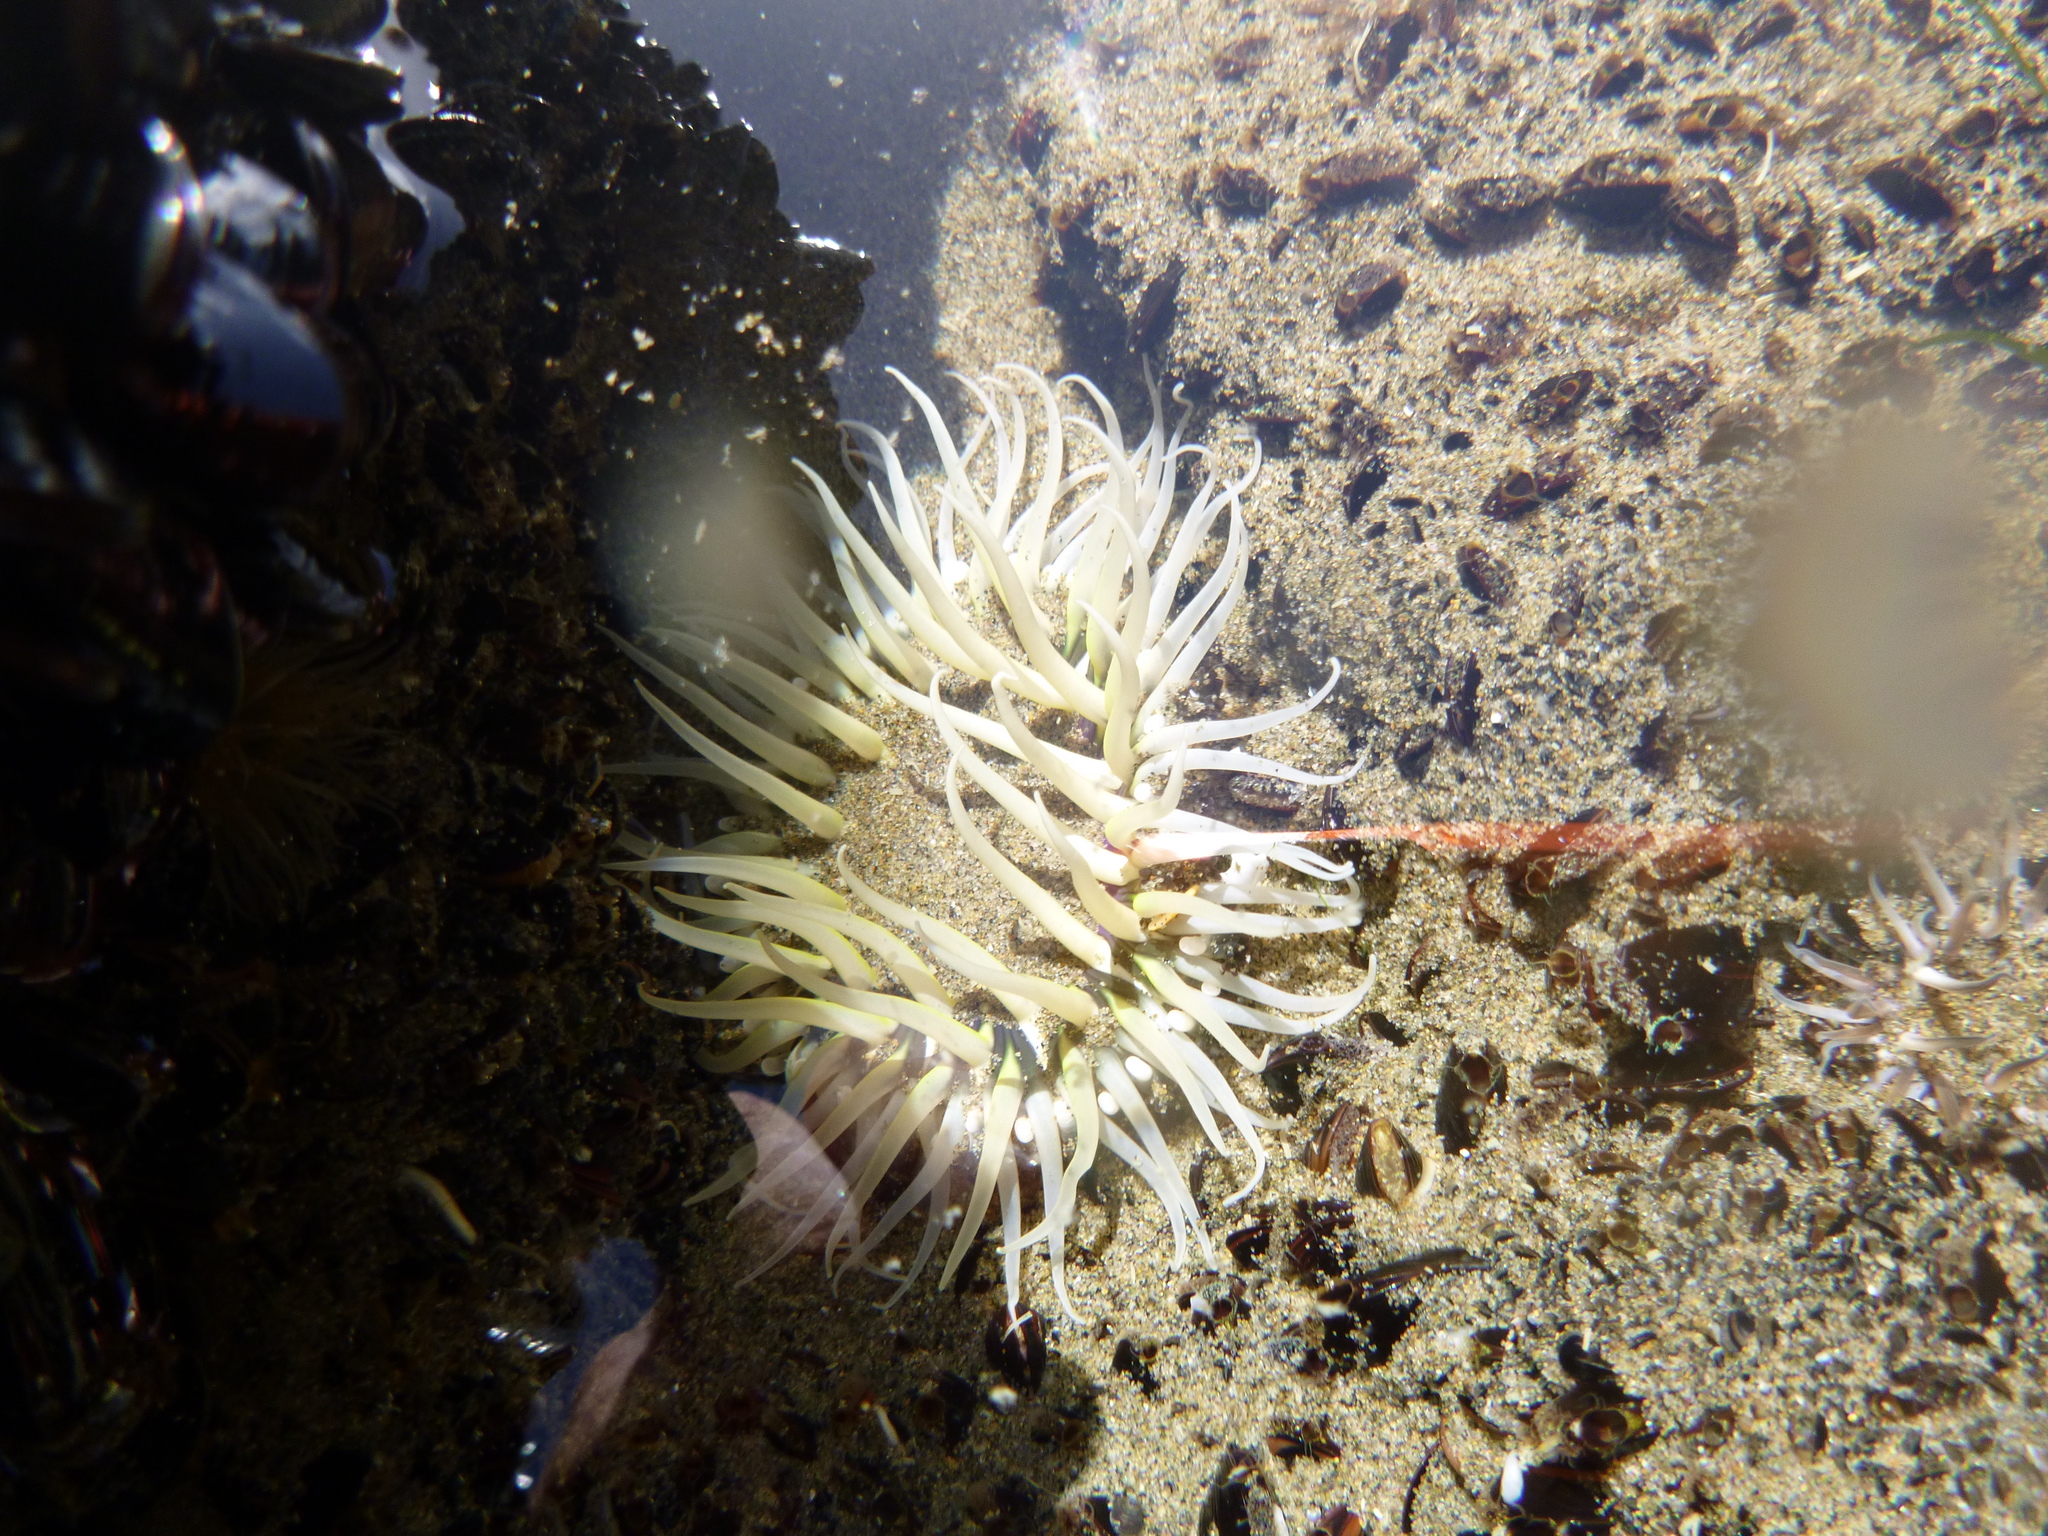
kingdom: Animalia
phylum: Cnidaria
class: Anthozoa
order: Actiniaria
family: Actiniidae
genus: Oulactis
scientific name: Oulactis magna
